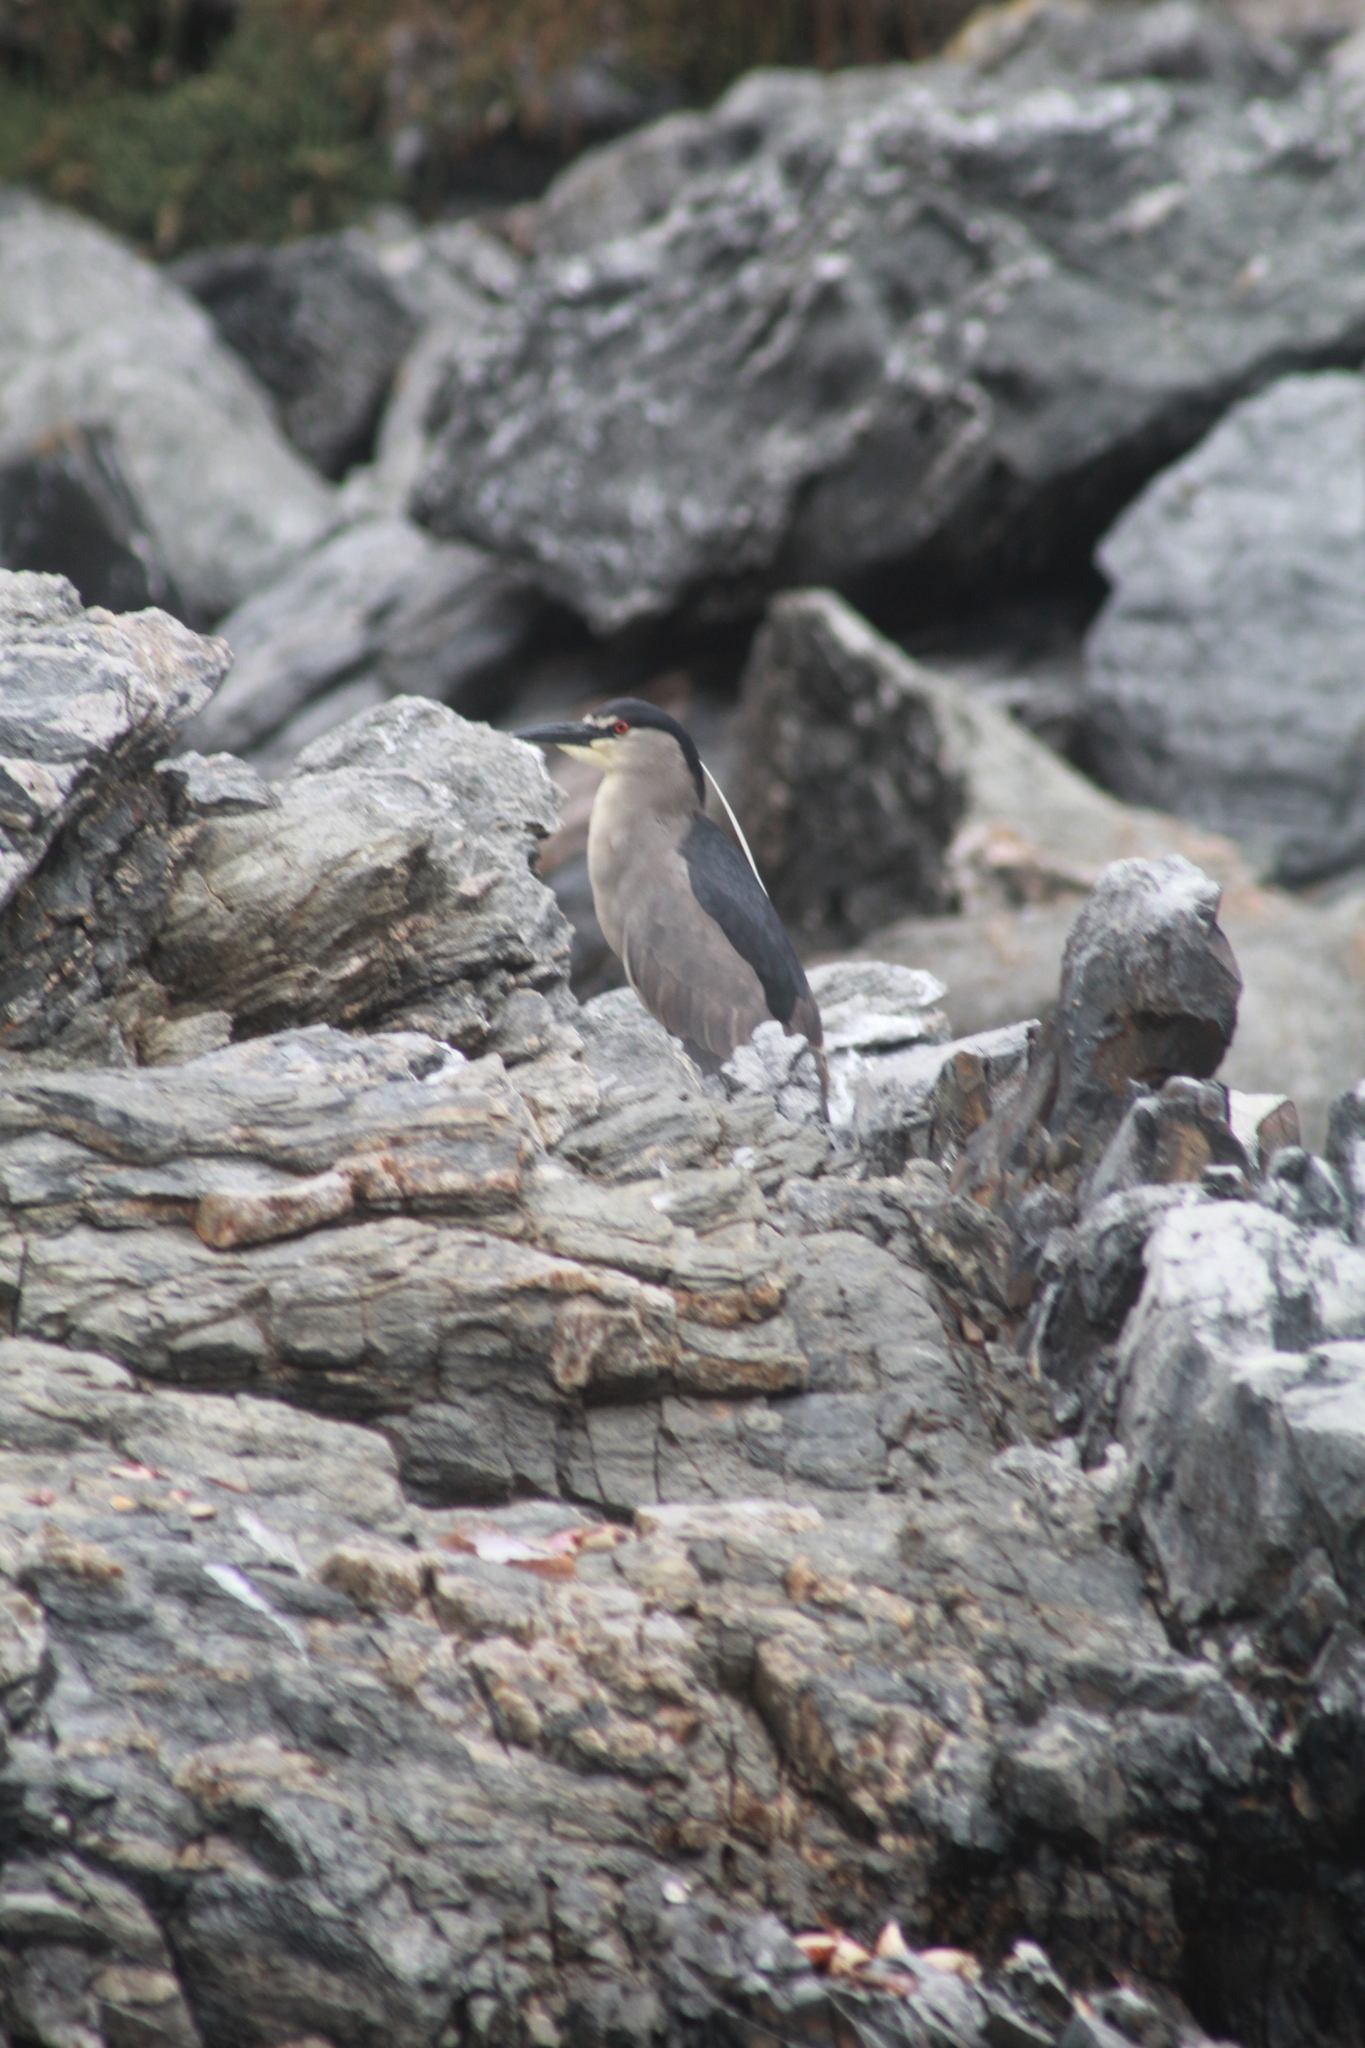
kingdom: Animalia
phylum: Chordata
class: Aves
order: Pelecaniformes
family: Ardeidae
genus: Nycticorax
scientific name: Nycticorax nycticorax
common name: Black-crowned night heron
